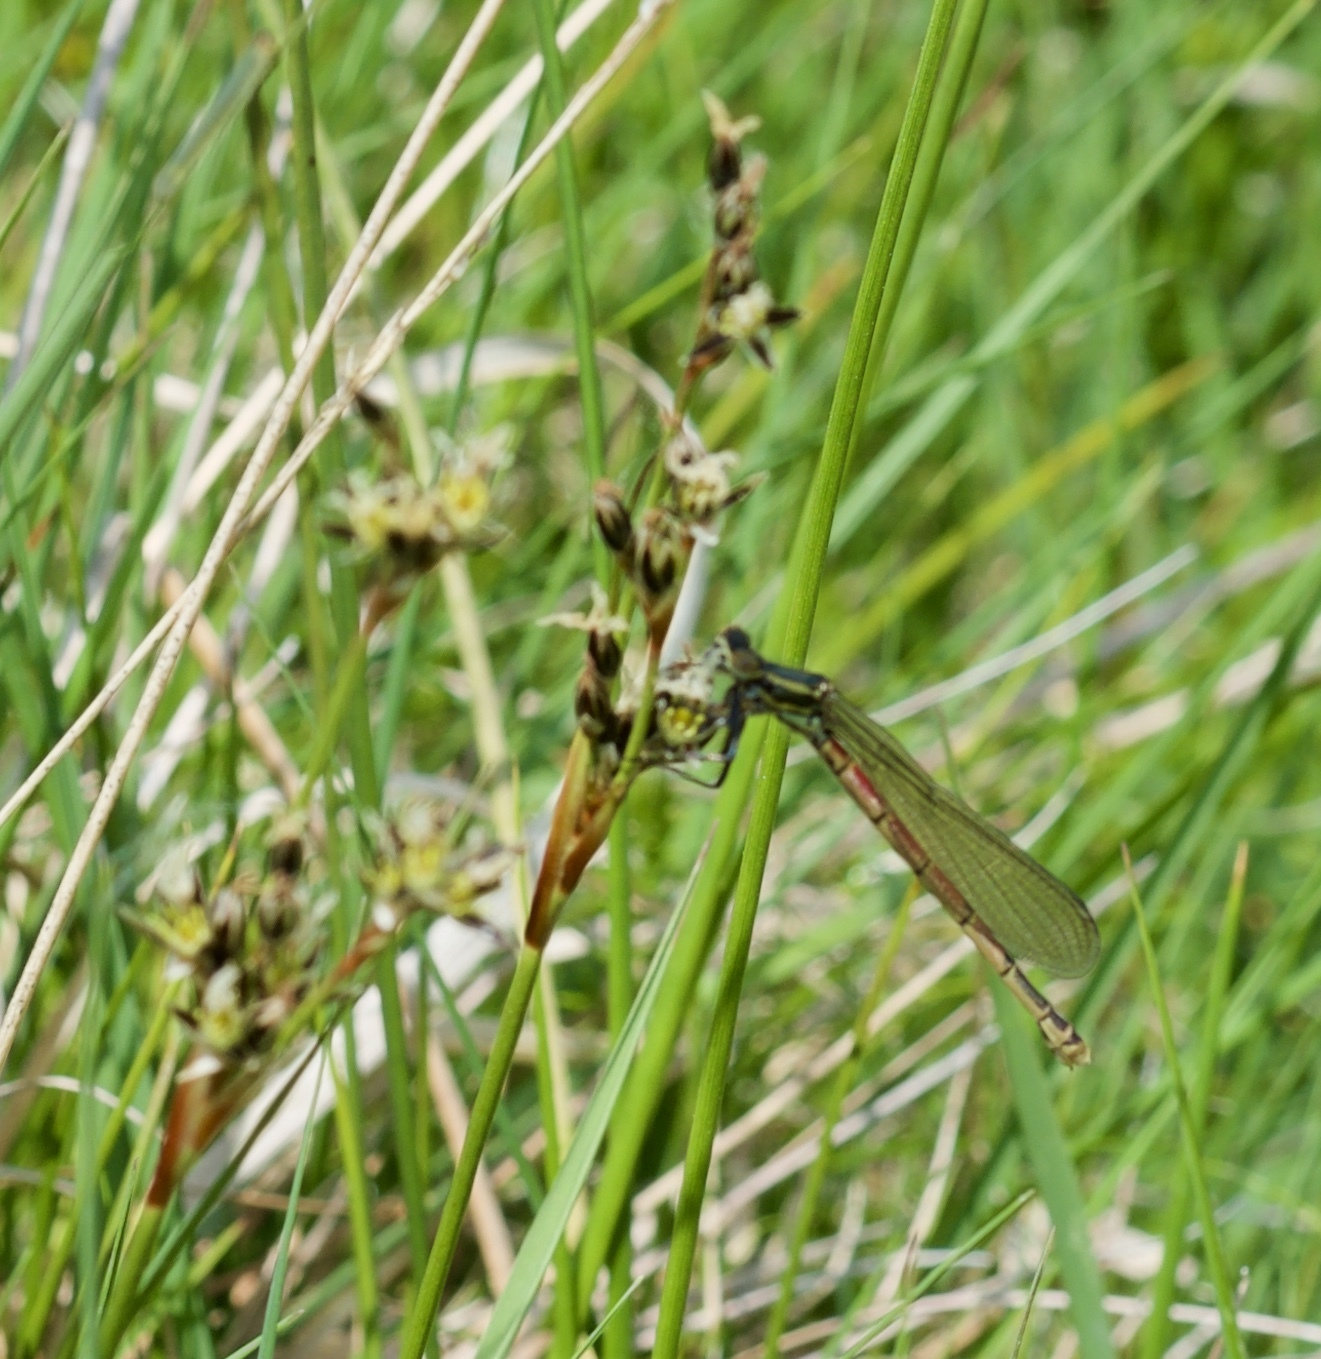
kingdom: Animalia
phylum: Arthropoda
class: Insecta
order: Odonata
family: Coenagrionidae
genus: Pyrrhosoma
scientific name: Pyrrhosoma nymphula
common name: Large red damsel
